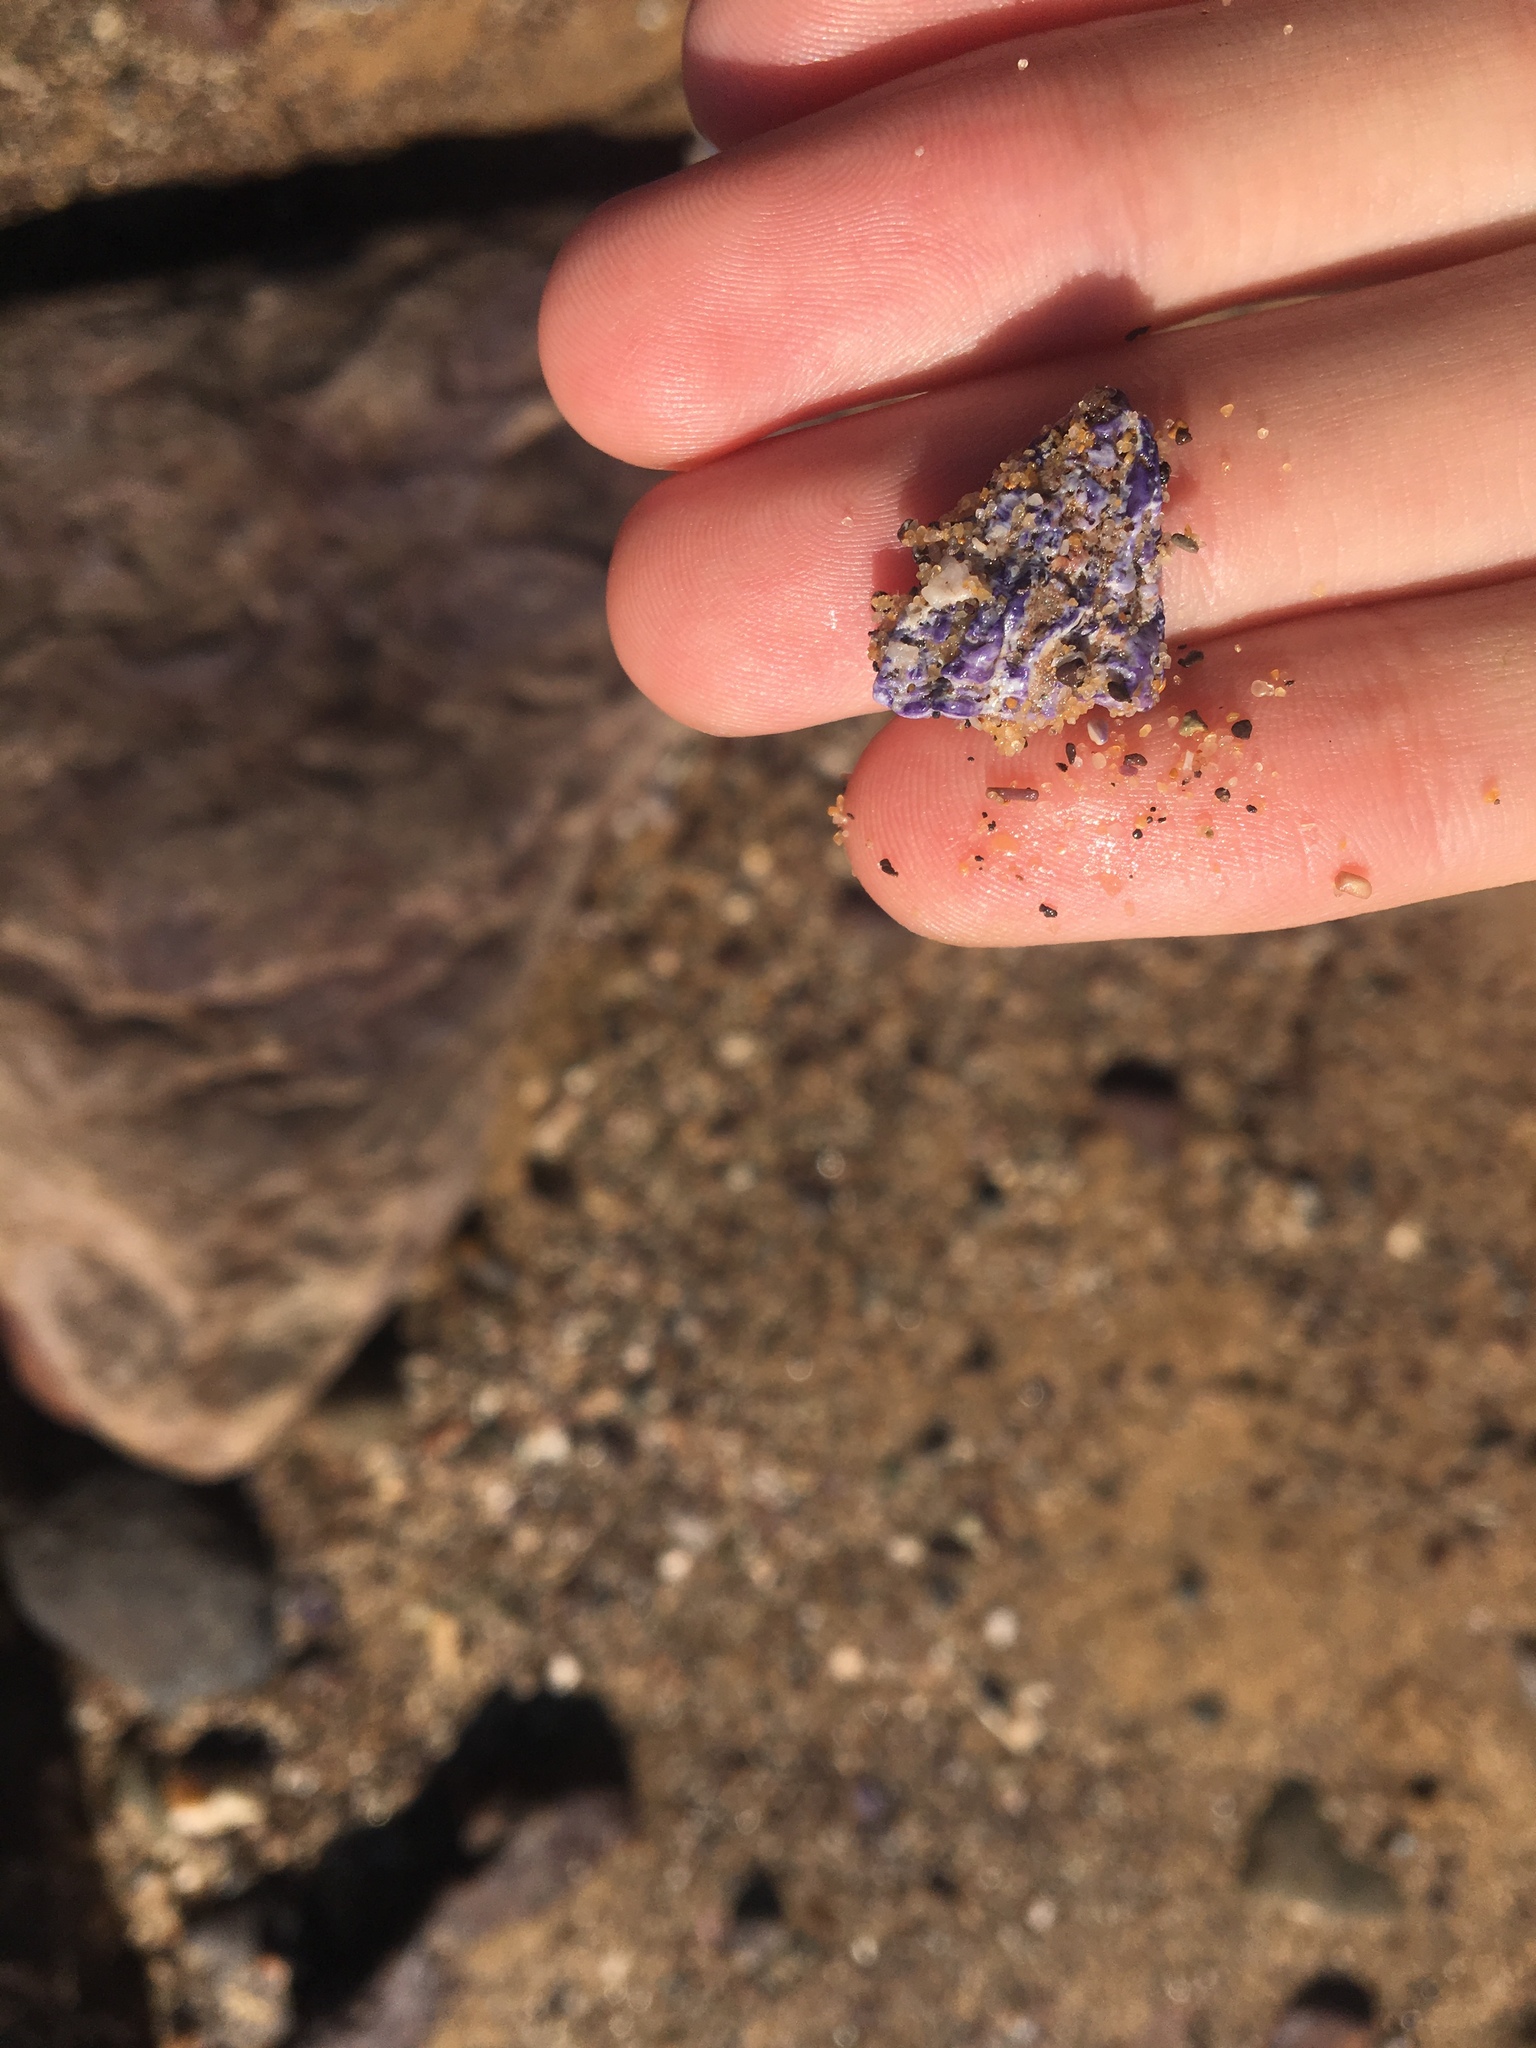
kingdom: Animalia
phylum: Arthropoda
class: Maxillopoda
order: Sessilia
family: Austrobalanidae
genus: Austrobalanus
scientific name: Austrobalanus imperator
